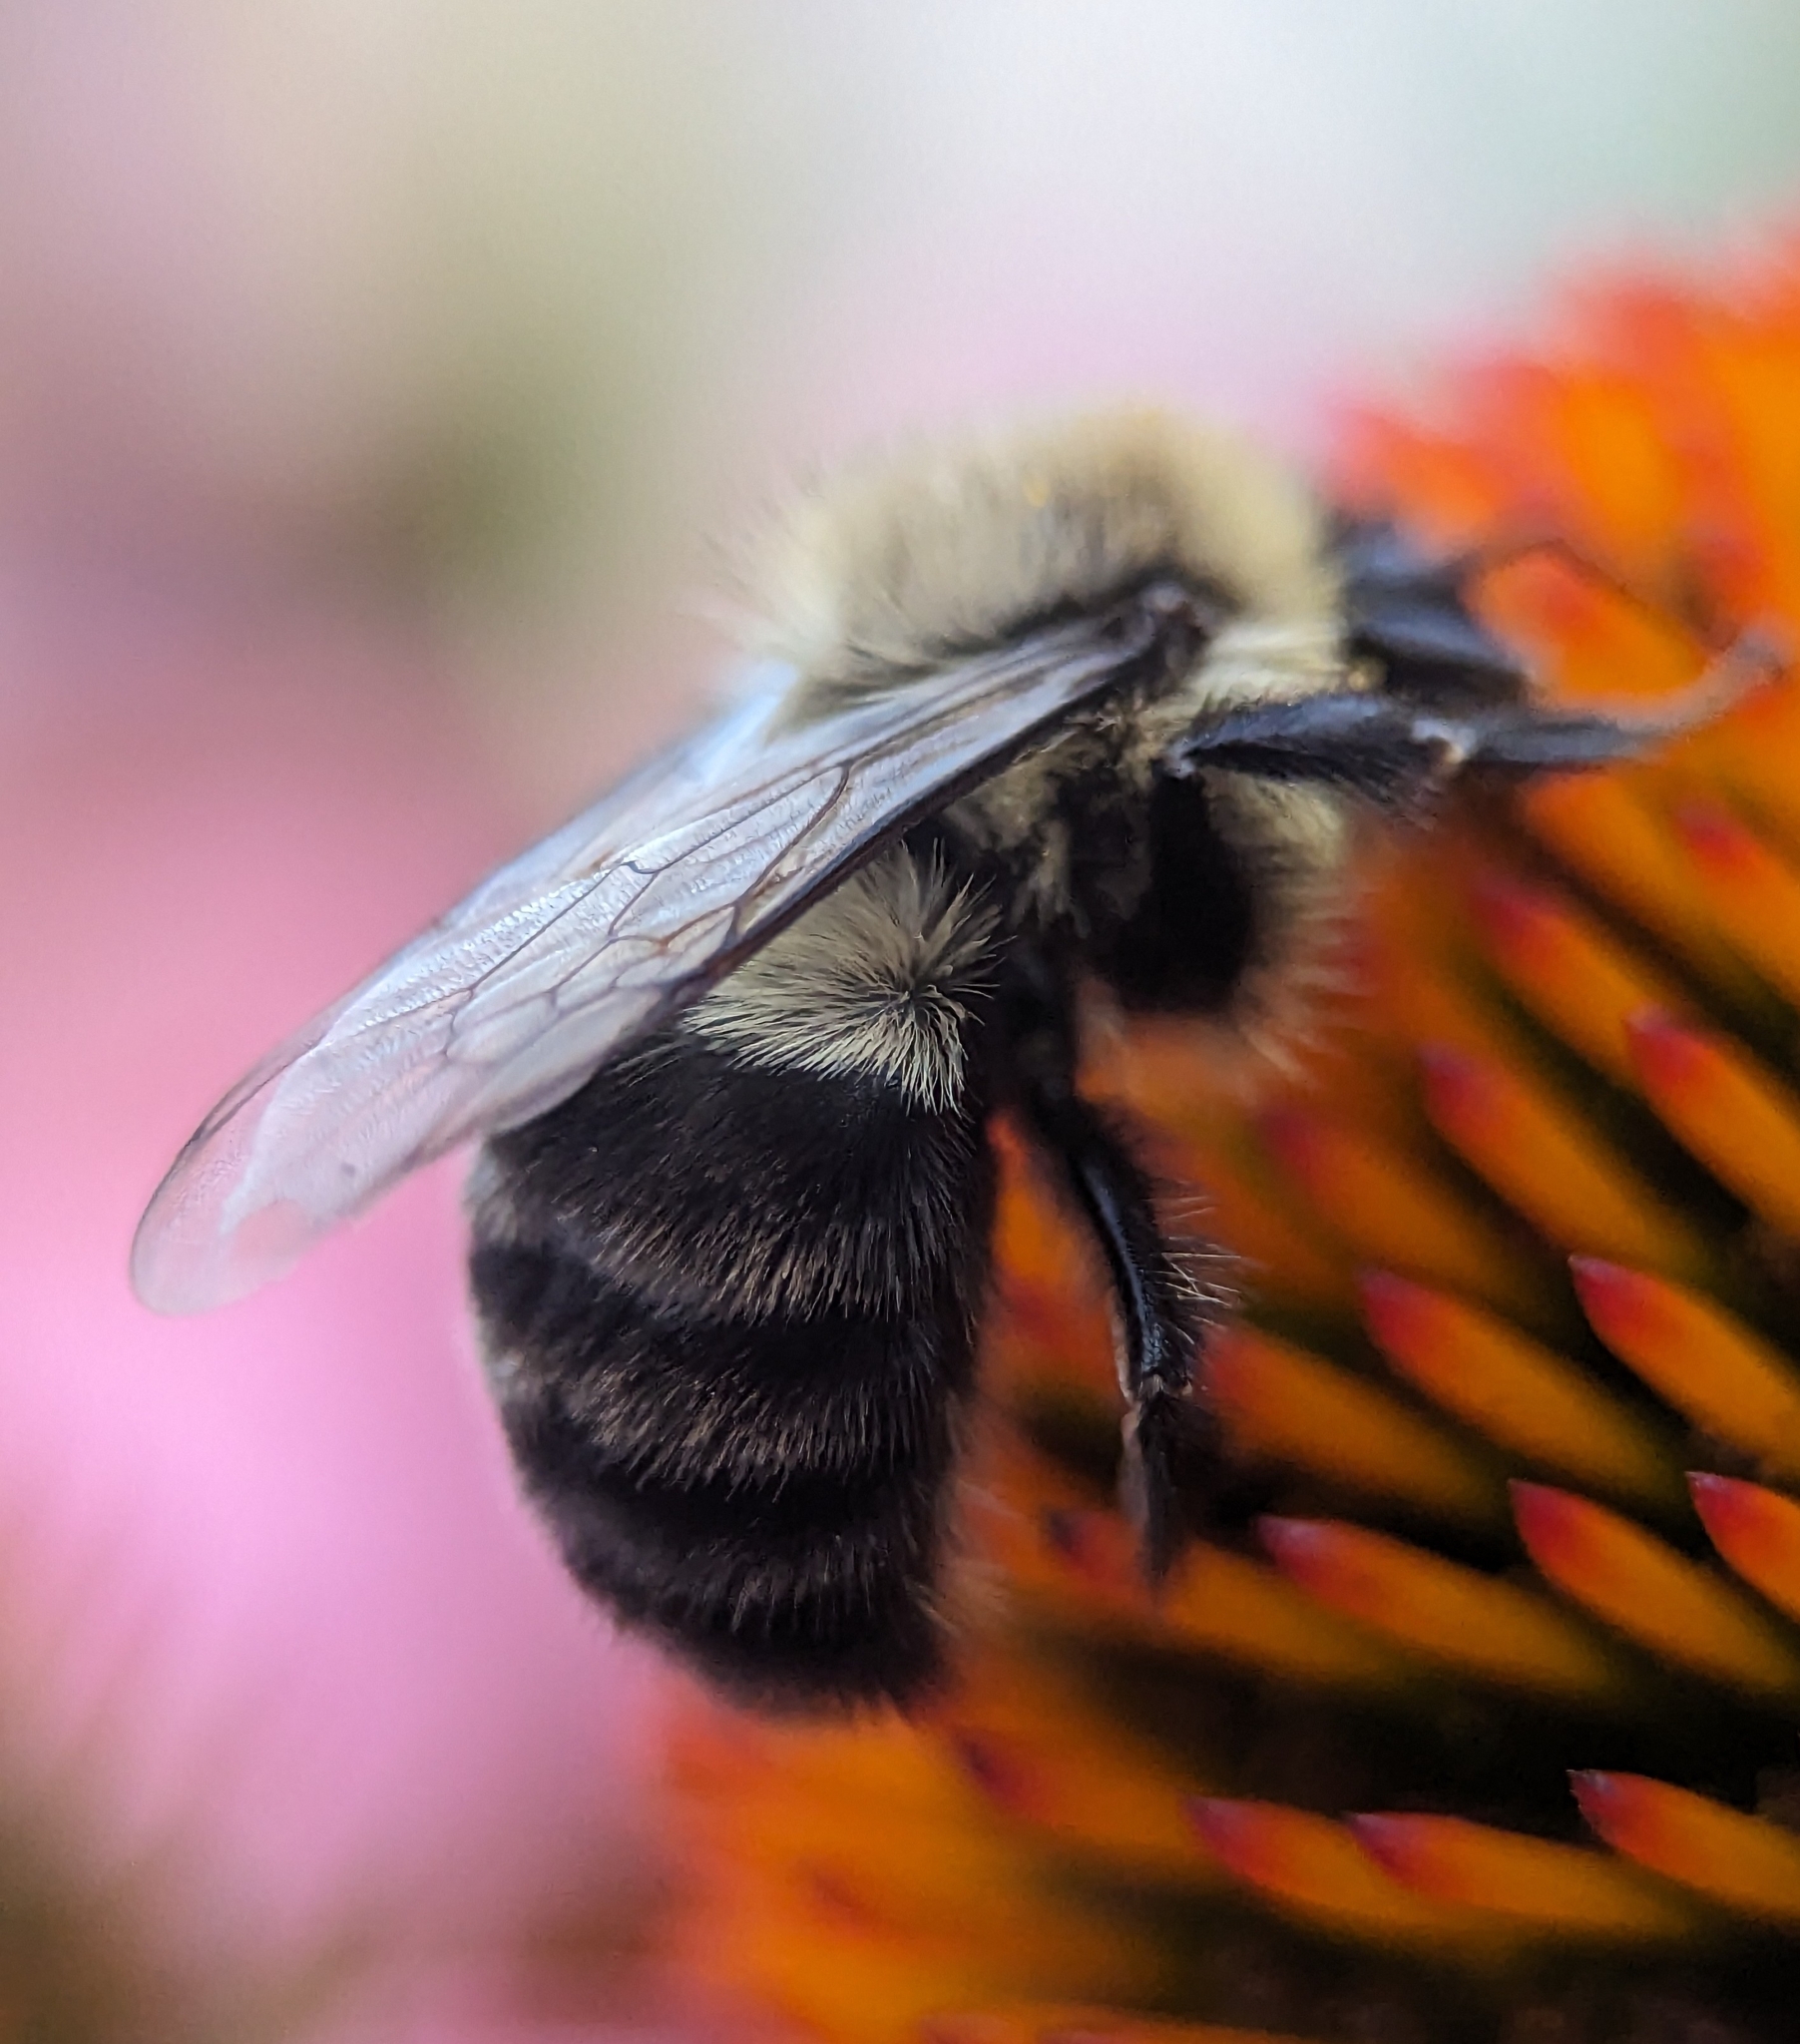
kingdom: Animalia
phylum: Arthropoda
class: Insecta
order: Hymenoptera
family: Apidae
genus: Bombus
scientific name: Bombus impatiens
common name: Common eastern bumble bee
